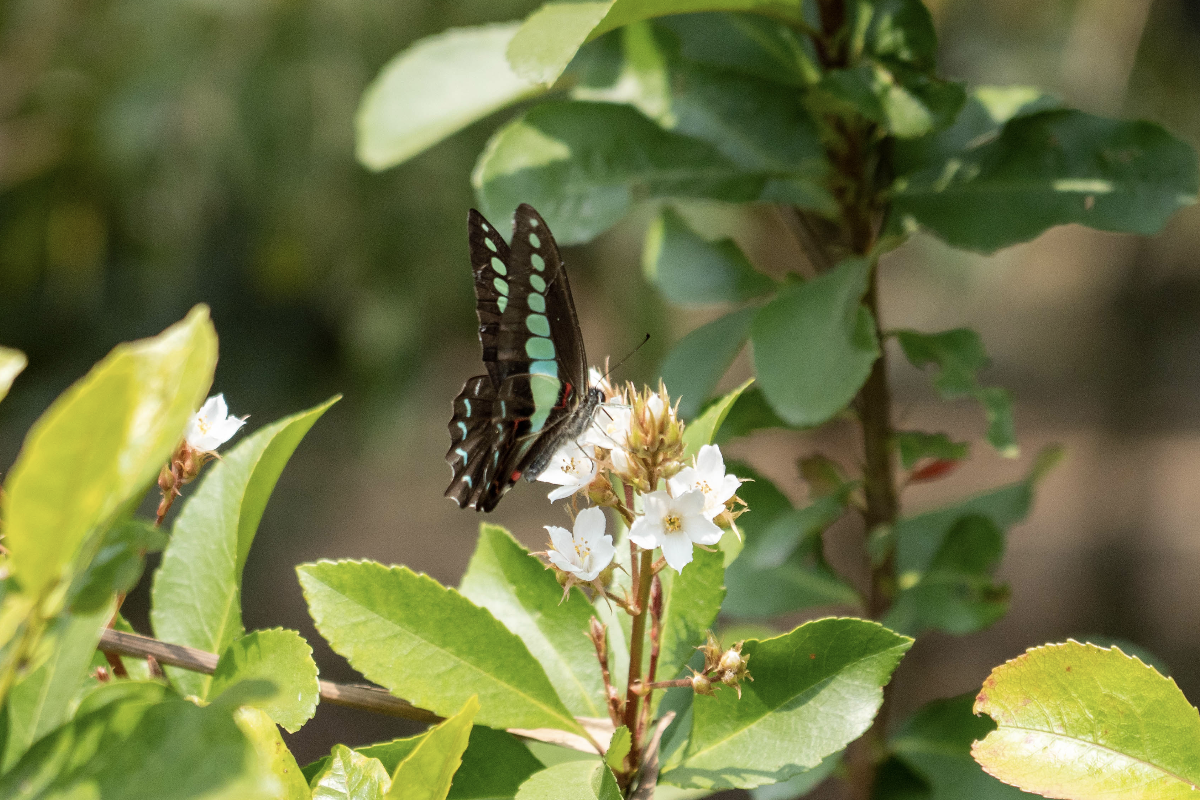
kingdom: Fungi
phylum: Ascomycota
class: Sordariomycetes
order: Microascales
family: Microascaceae
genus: Graphium
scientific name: Graphium sarpedon
